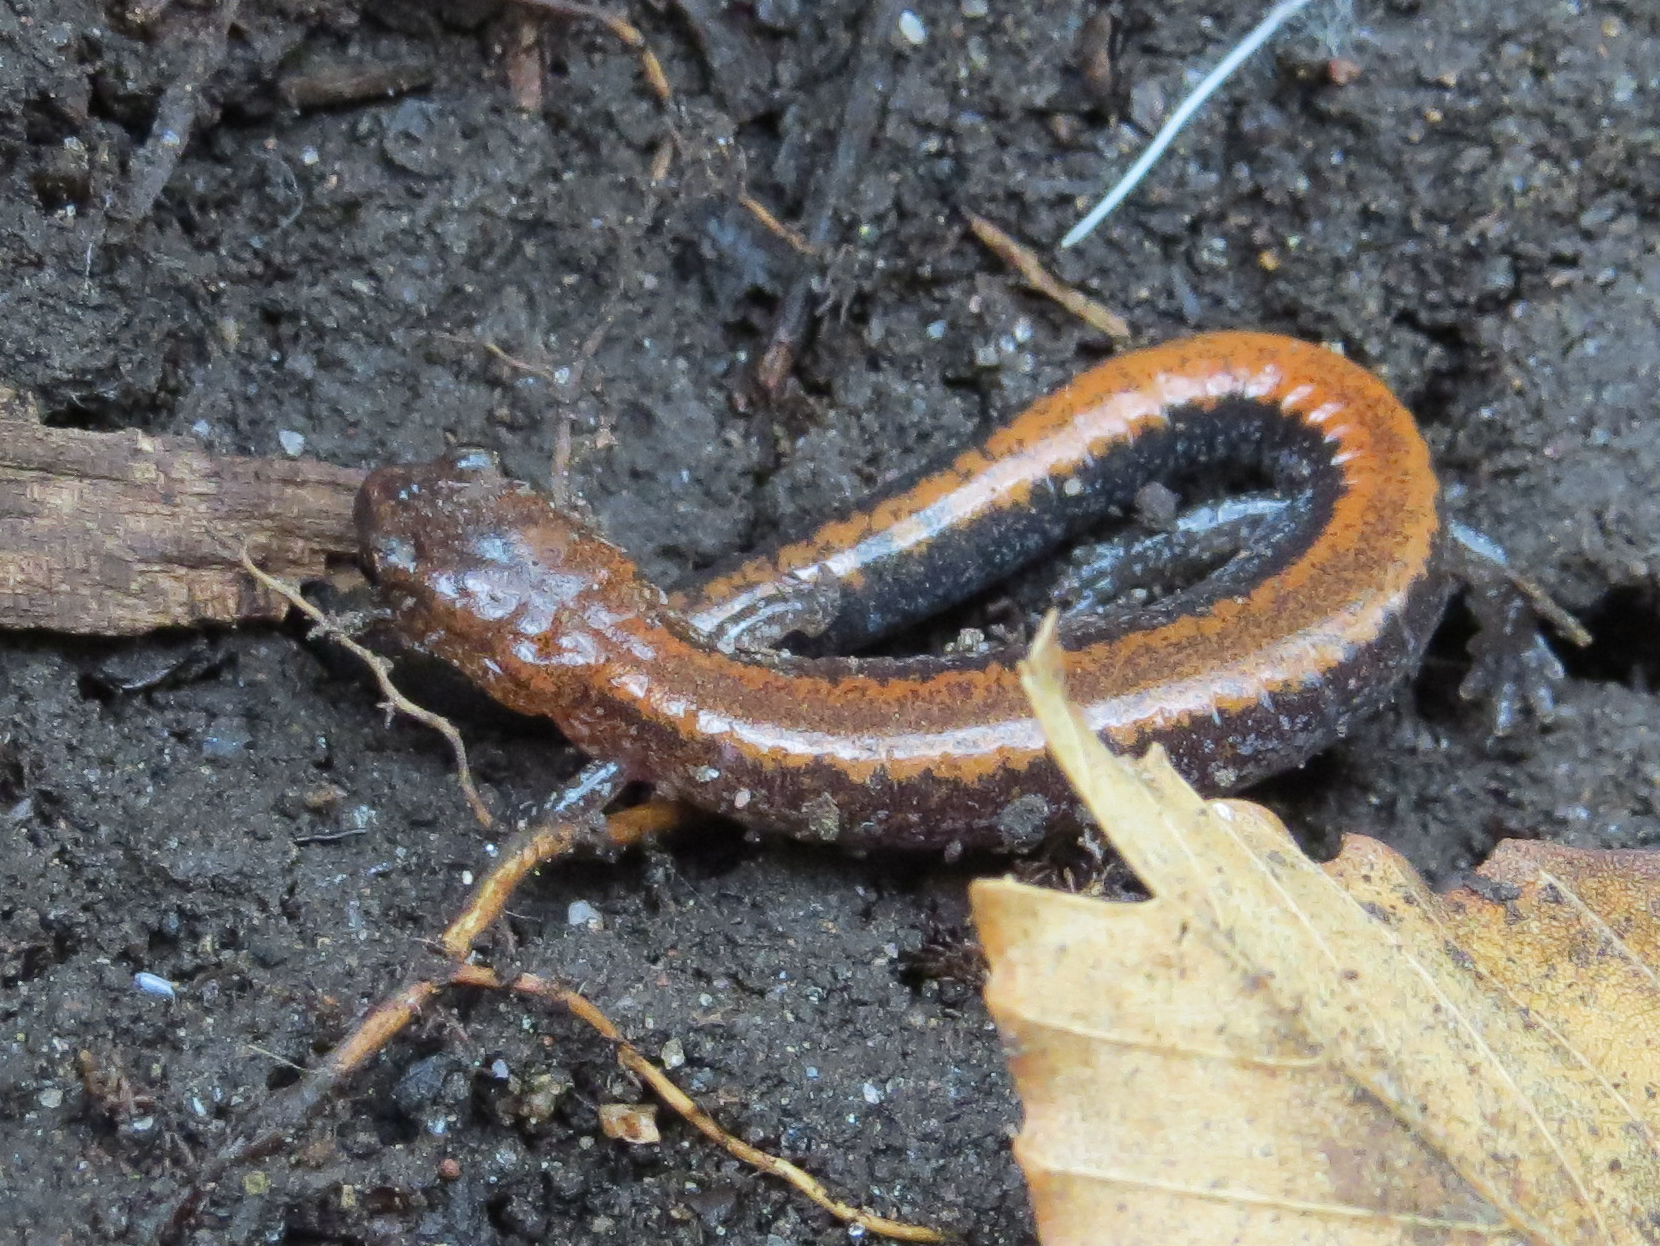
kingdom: Animalia
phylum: Chordata
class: Amphibia
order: Caudata
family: Plethodontidae
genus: Plethodon
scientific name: Plethodon cinereus
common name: Redback salamander
